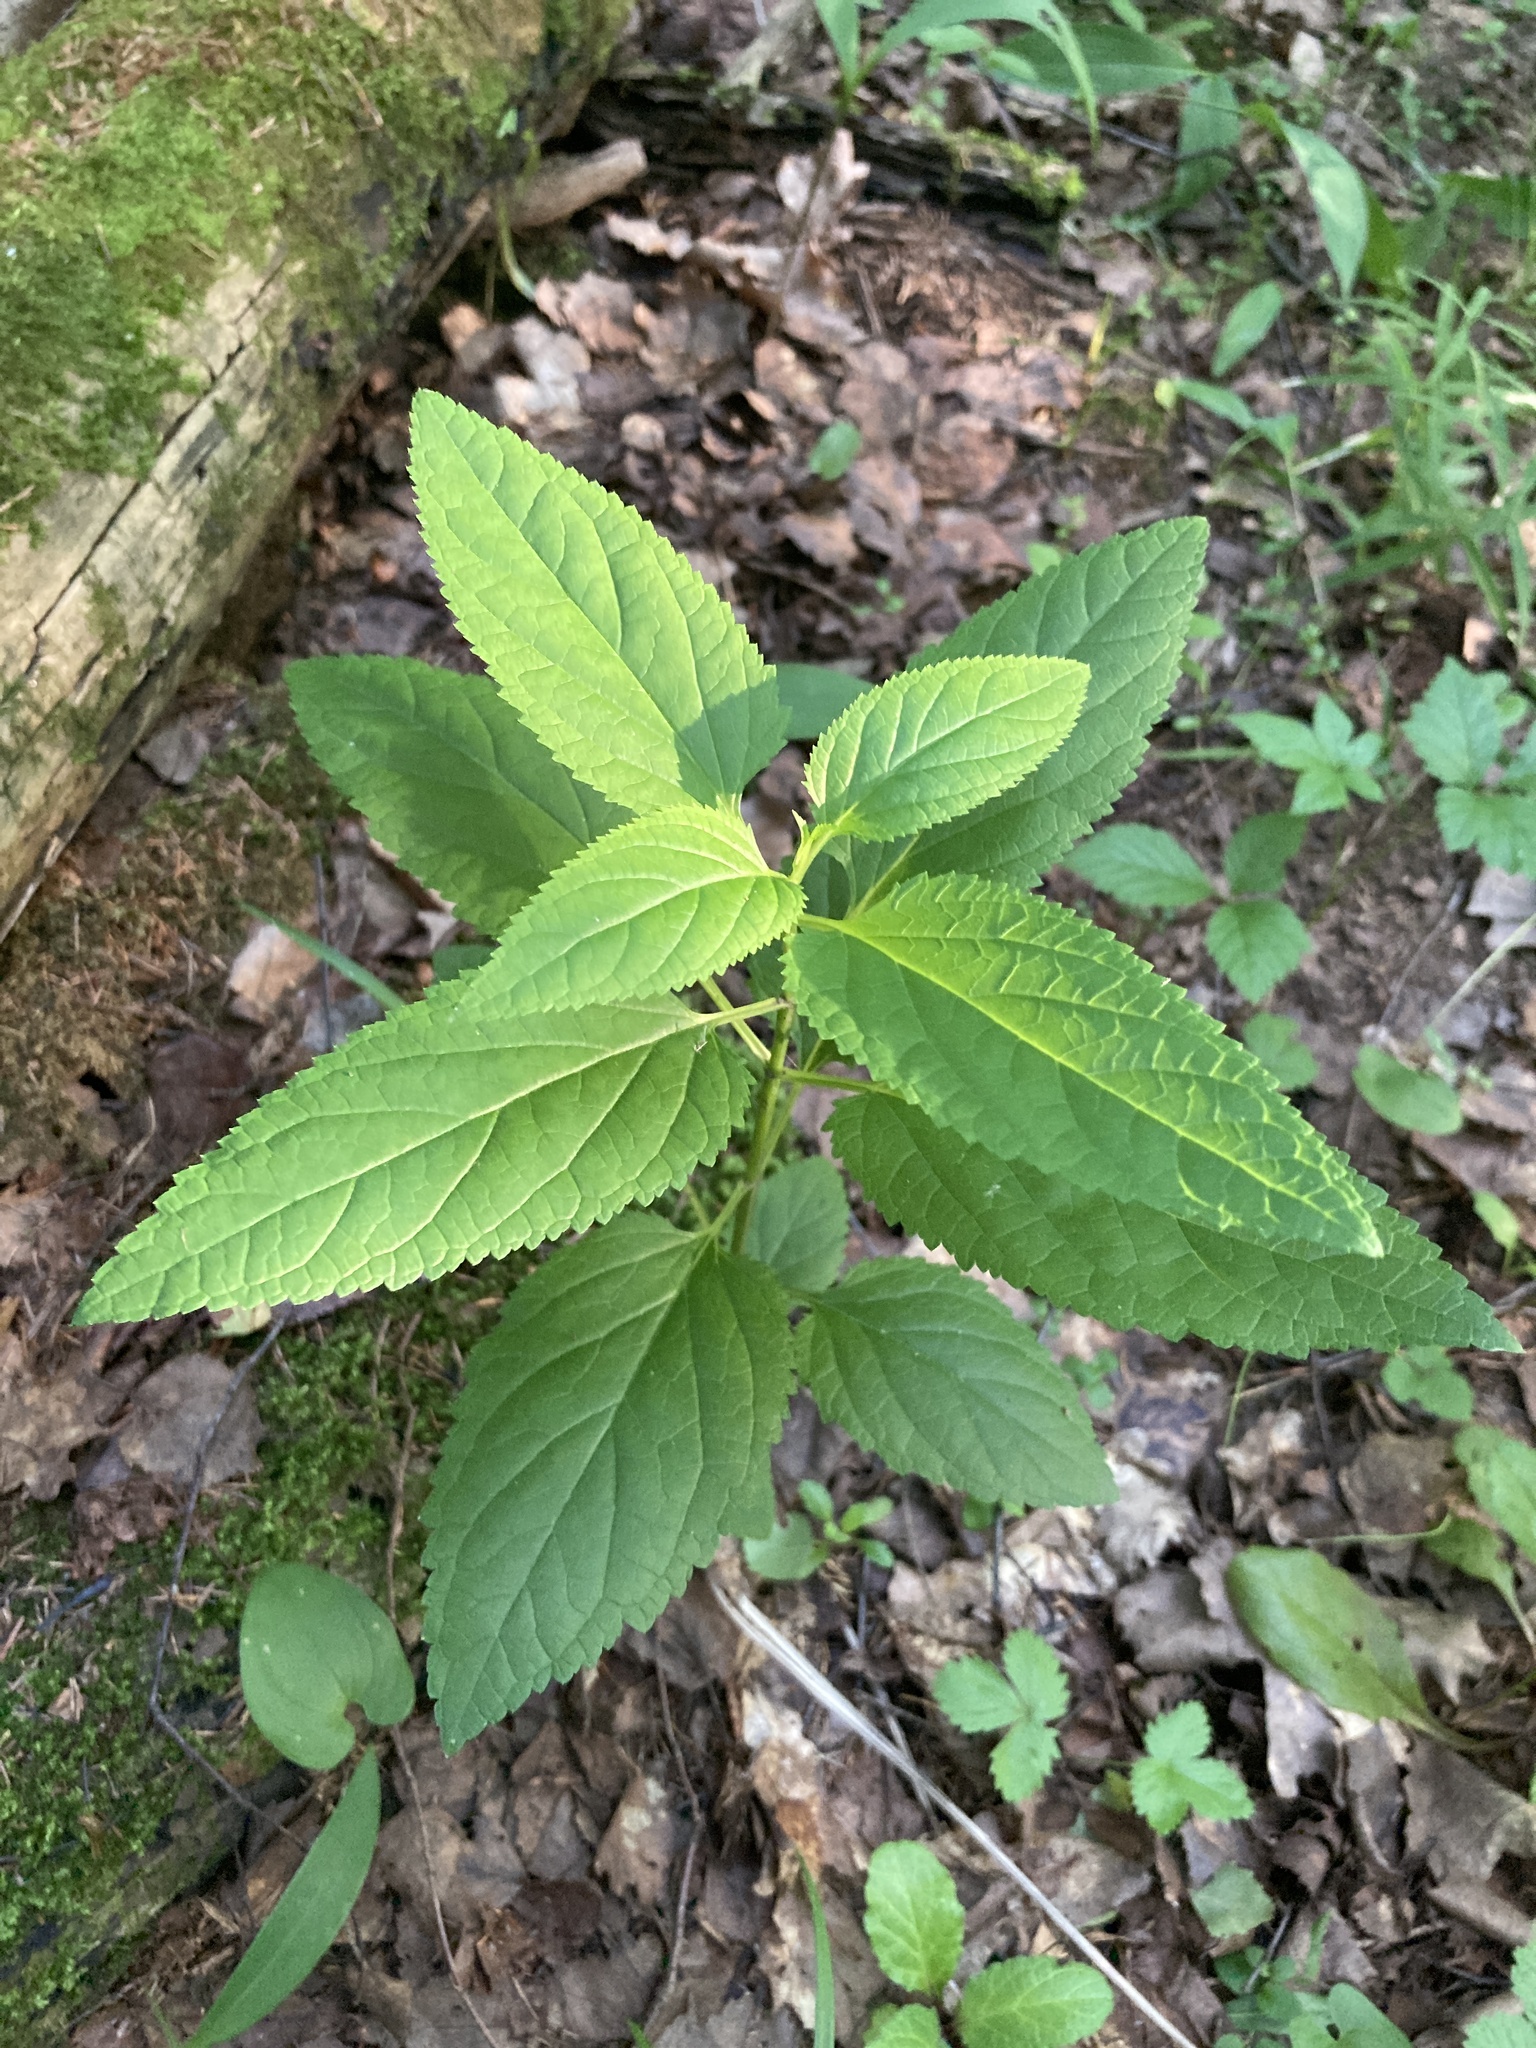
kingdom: Plantae
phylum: Tracheophyta
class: Magnoliopsida
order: Lamiales
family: Scrophulariaceae
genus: Scrophularia
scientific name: Scrophularia nodosa
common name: Common figwort
